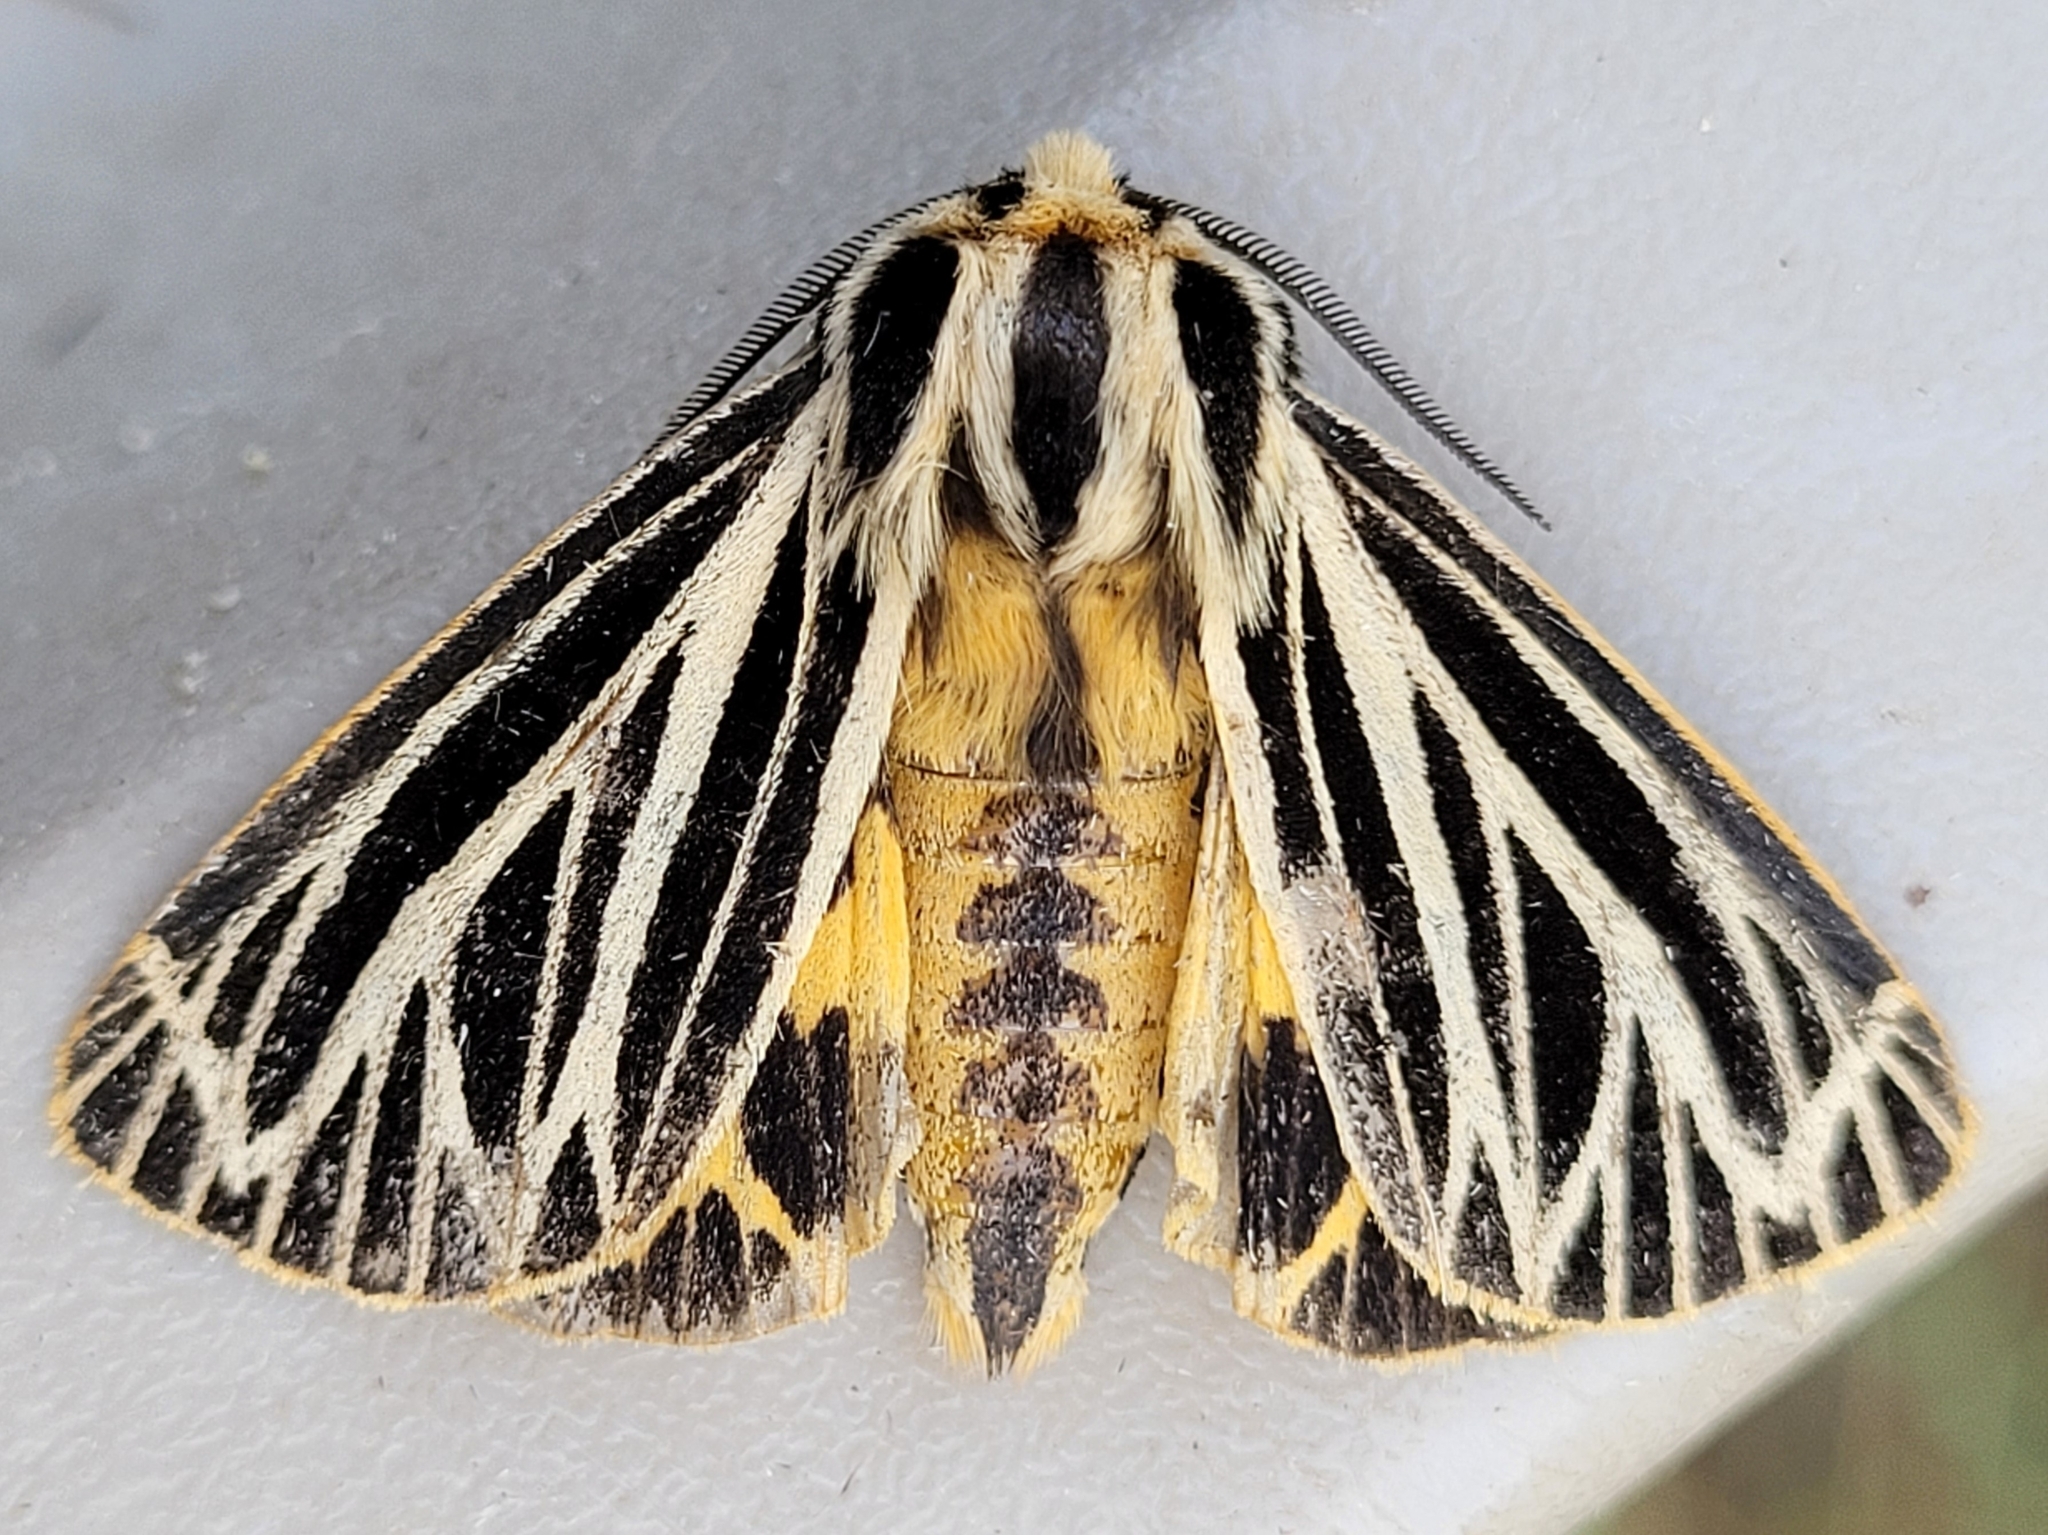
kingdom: Animalia
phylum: Arthropoda
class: Insecta
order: Lepidoptera
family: Erebidae
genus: Grammia
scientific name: Grammia virguncula
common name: Little tiger moth
